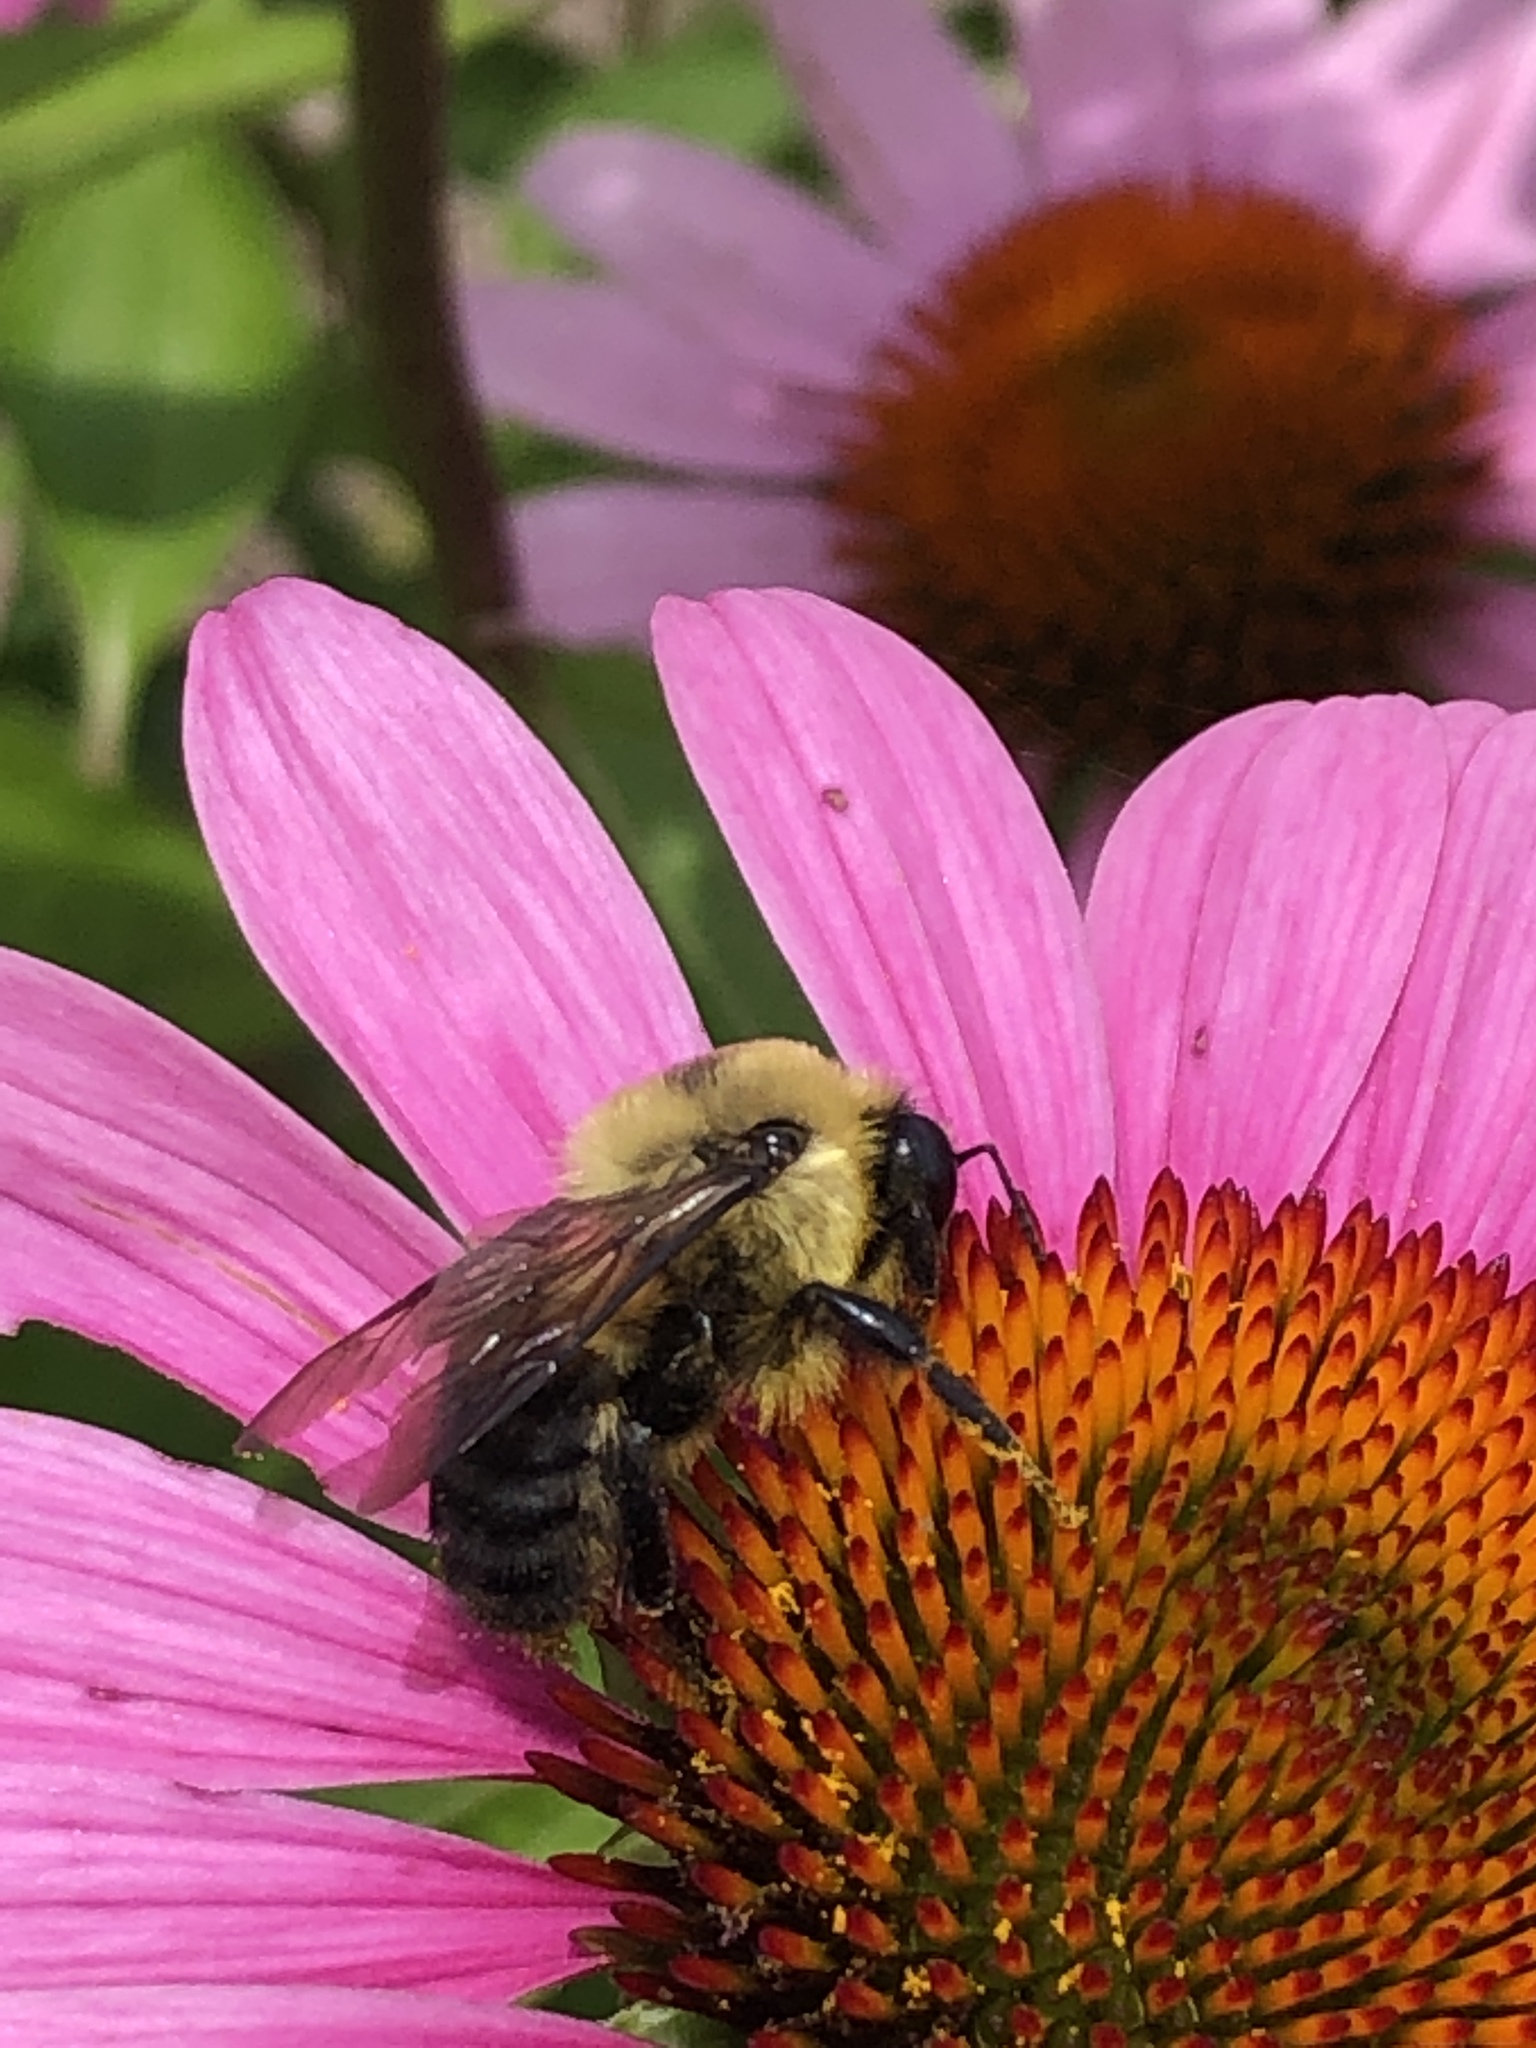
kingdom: Animalia
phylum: Arthropoda
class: Insecta
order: Hymenoptera
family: Apidae
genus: Bombus
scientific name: Bombus griseocollis
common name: Brown-belted bumble bee
